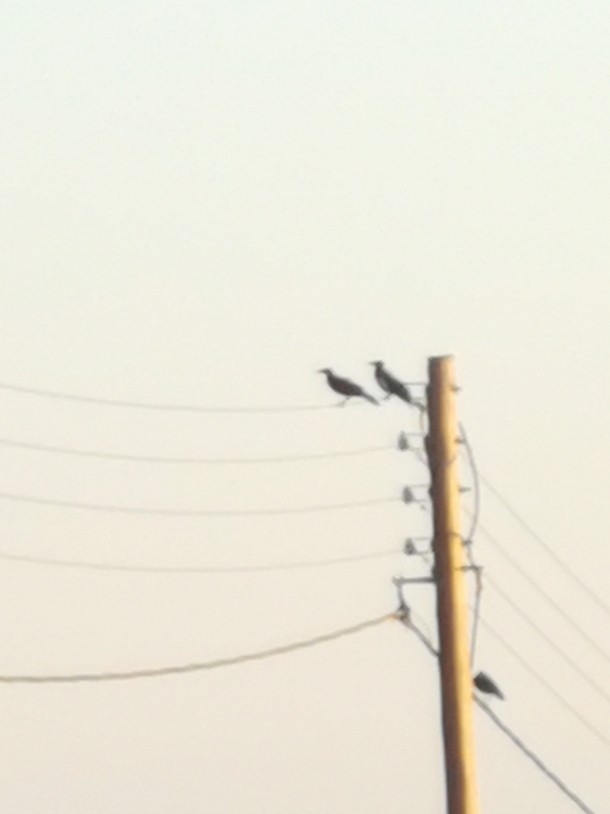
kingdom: Animalia
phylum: Chordata
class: Aves
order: Passeriformes
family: Corvidae
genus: Corvus
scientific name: Corvus cornix
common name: Hooded crow
